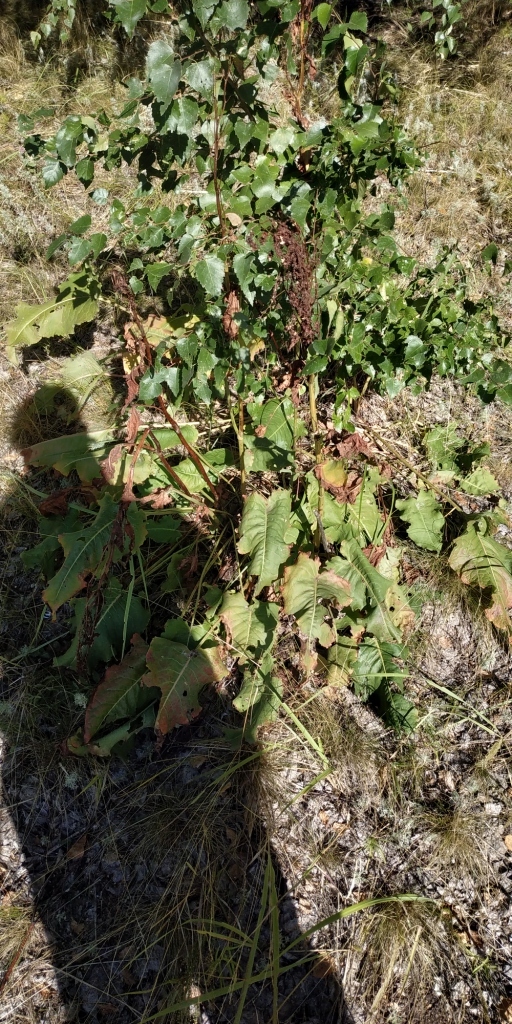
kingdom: Plantae
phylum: Tracheophyta
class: Magnoliopsida
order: Caryophyllales
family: Polygonaceae
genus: Rumex
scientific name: Rumex confertus
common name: Russian dock
